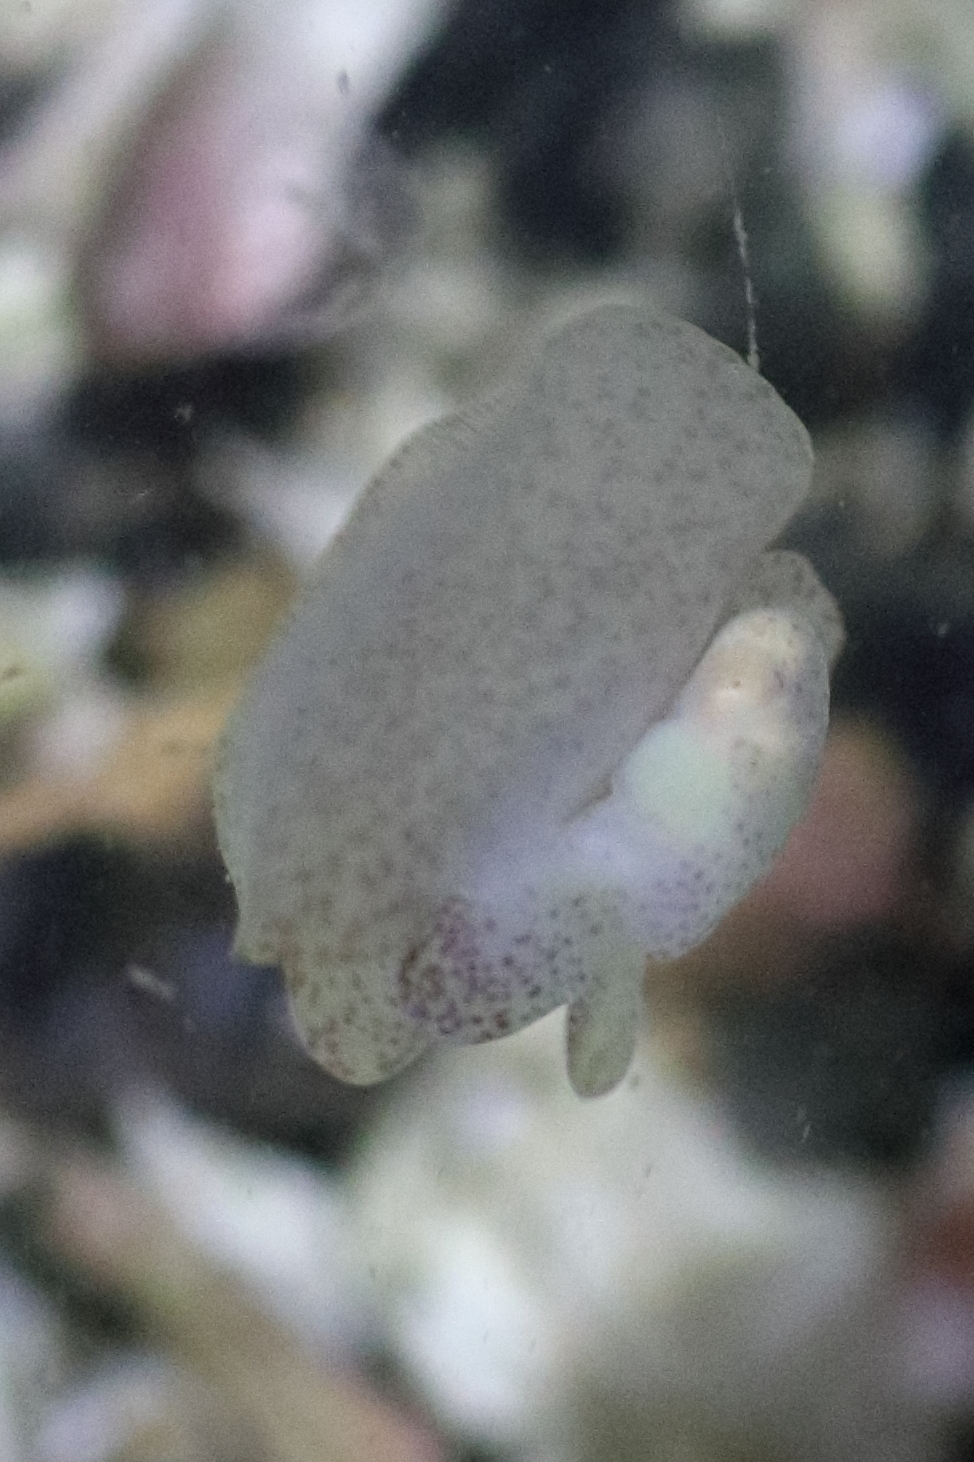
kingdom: Animalia
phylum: Mollusca
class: Gastropoda
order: Cephalaspidea
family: Gastropteridae
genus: Gastropteron
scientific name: Gastropteron pacificum
